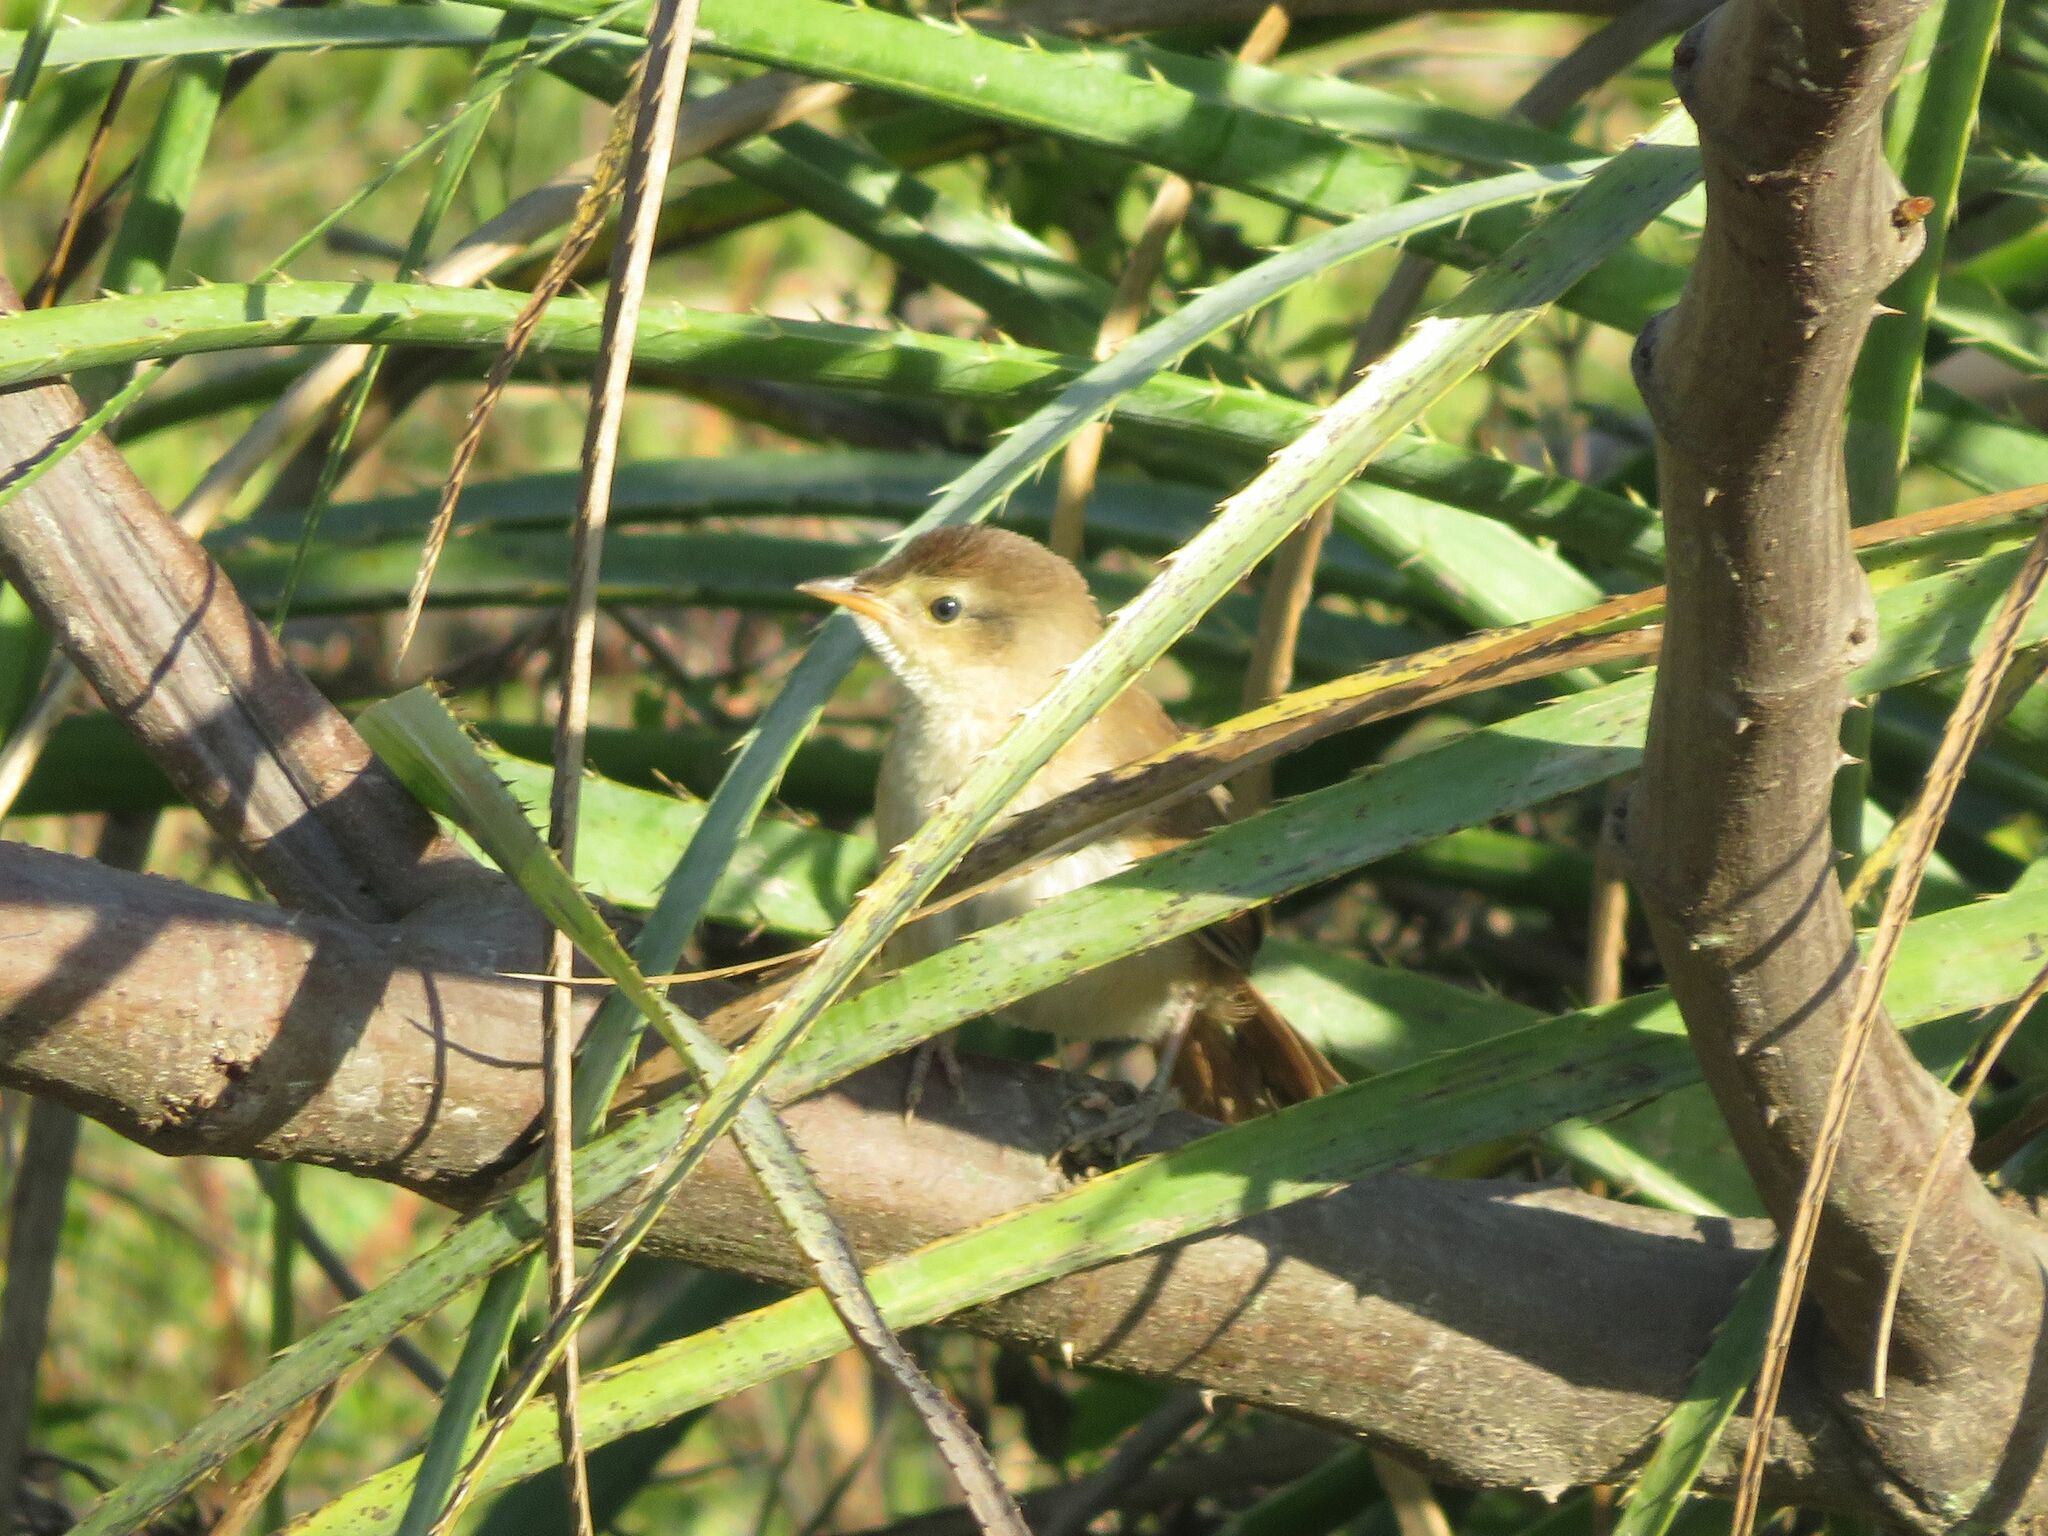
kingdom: Animalia
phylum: Chordata
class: Aves
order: Passeriformes
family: Thamnophilidae
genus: Thamnophilus
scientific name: Thamnophilus ruficapillus
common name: Rufous-capped antshrike
